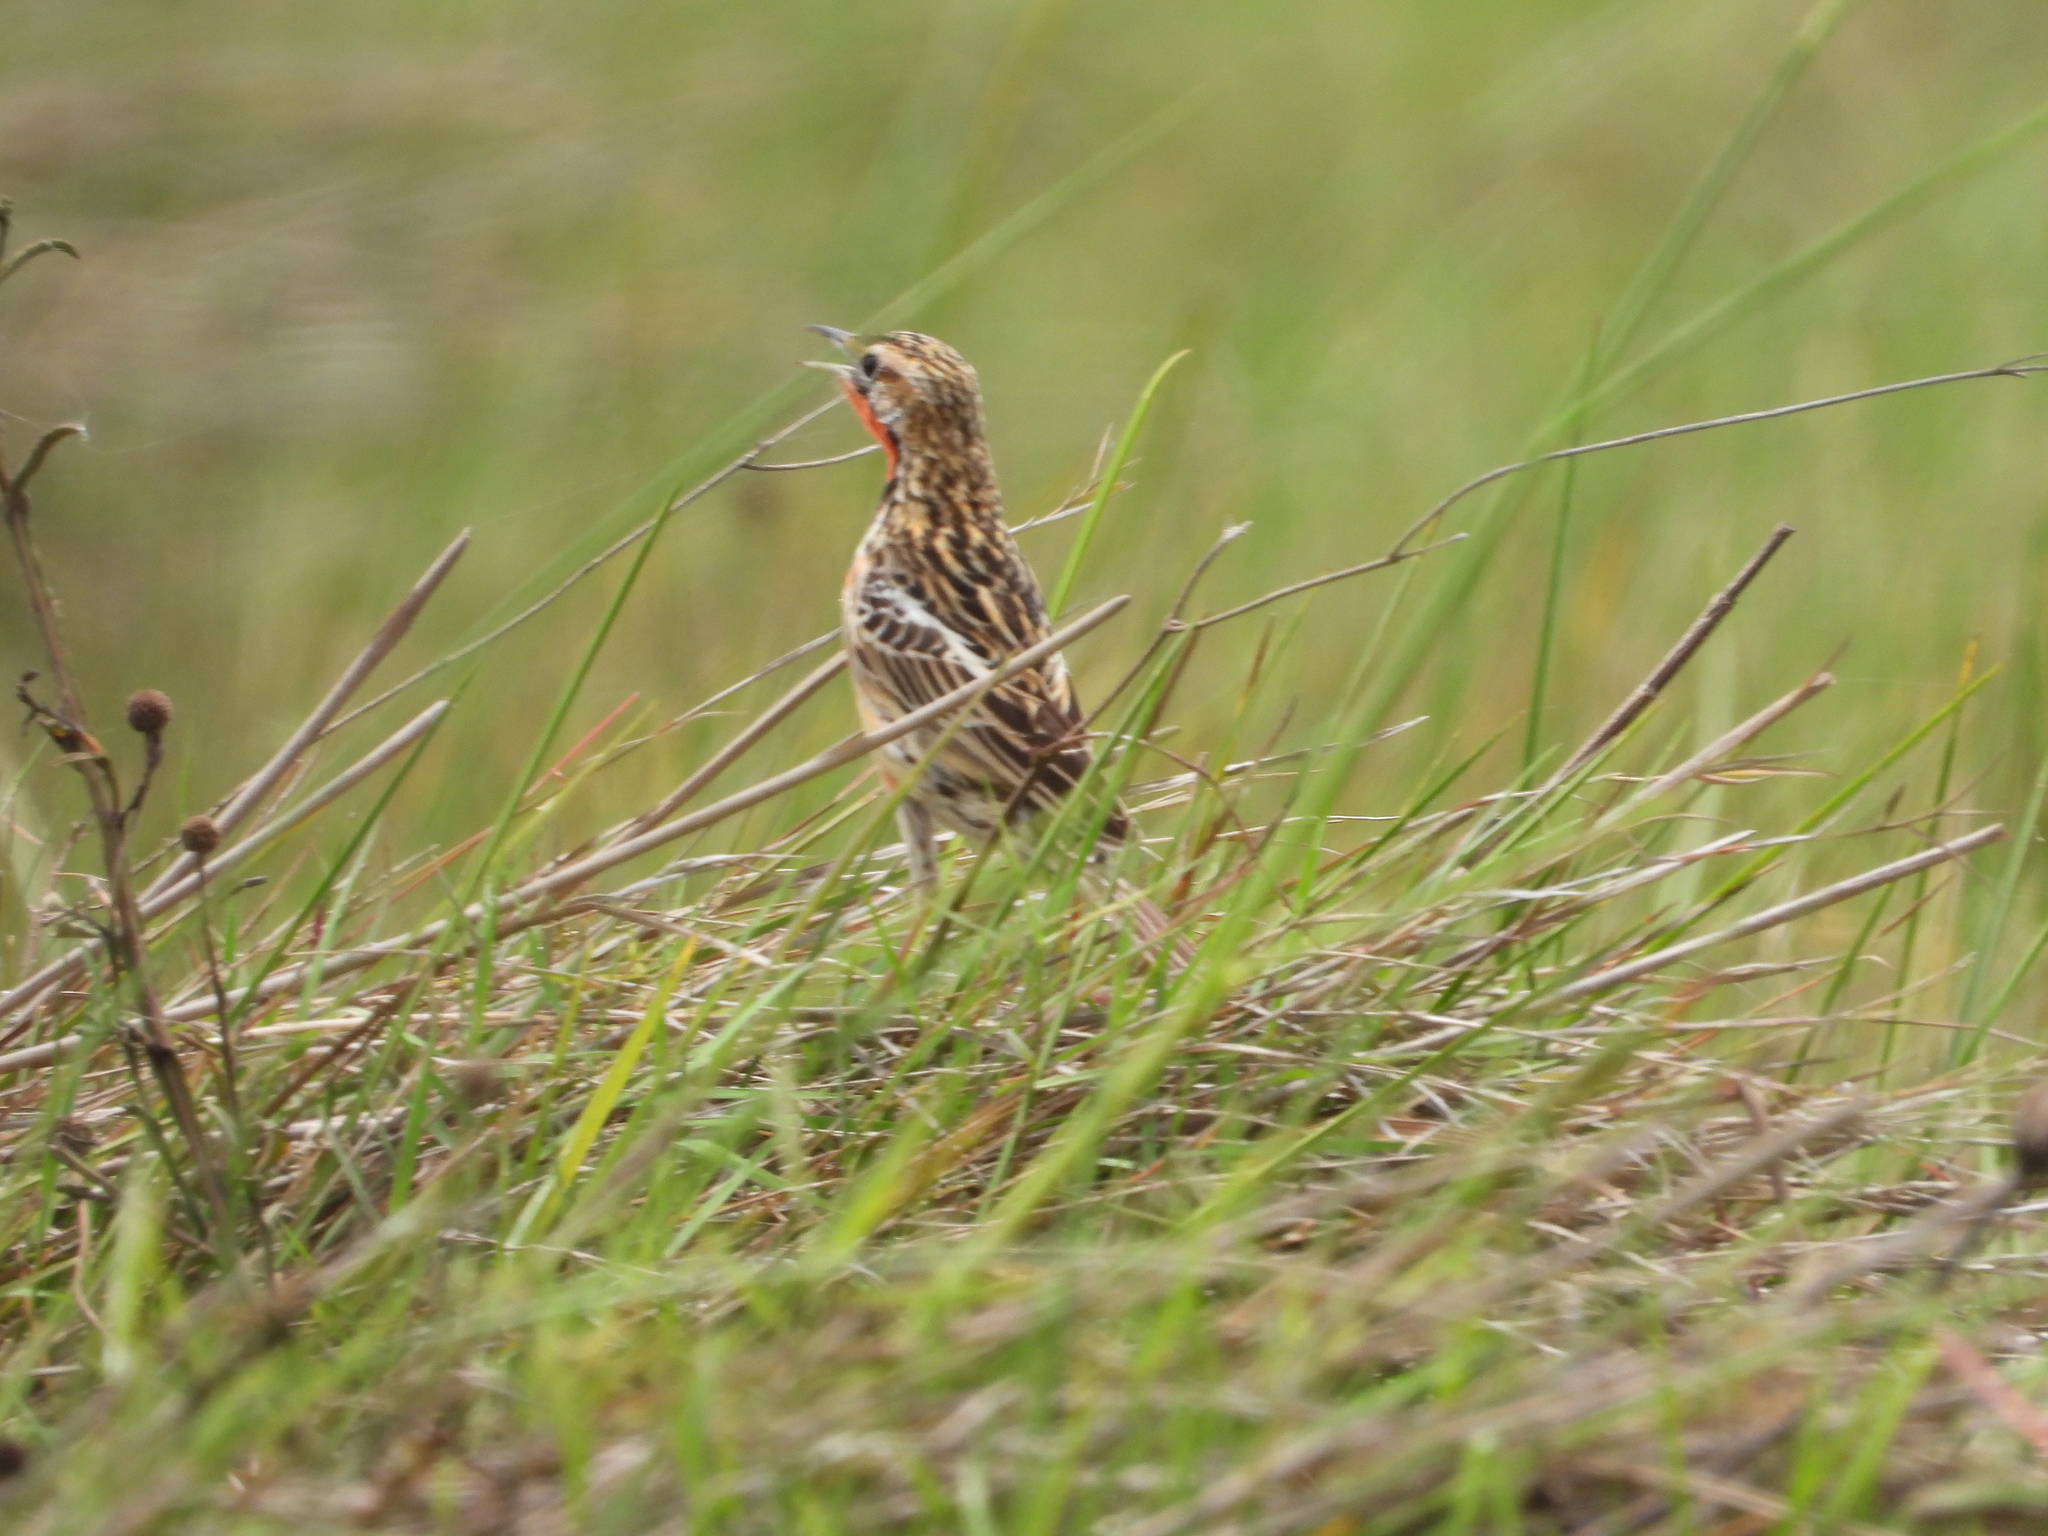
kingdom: Animalia
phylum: Chordata
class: Aves
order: Passeriformes
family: Motacillidae
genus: Macronyx
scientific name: Macronyx ameliae
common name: Rosy-throated longclaw
